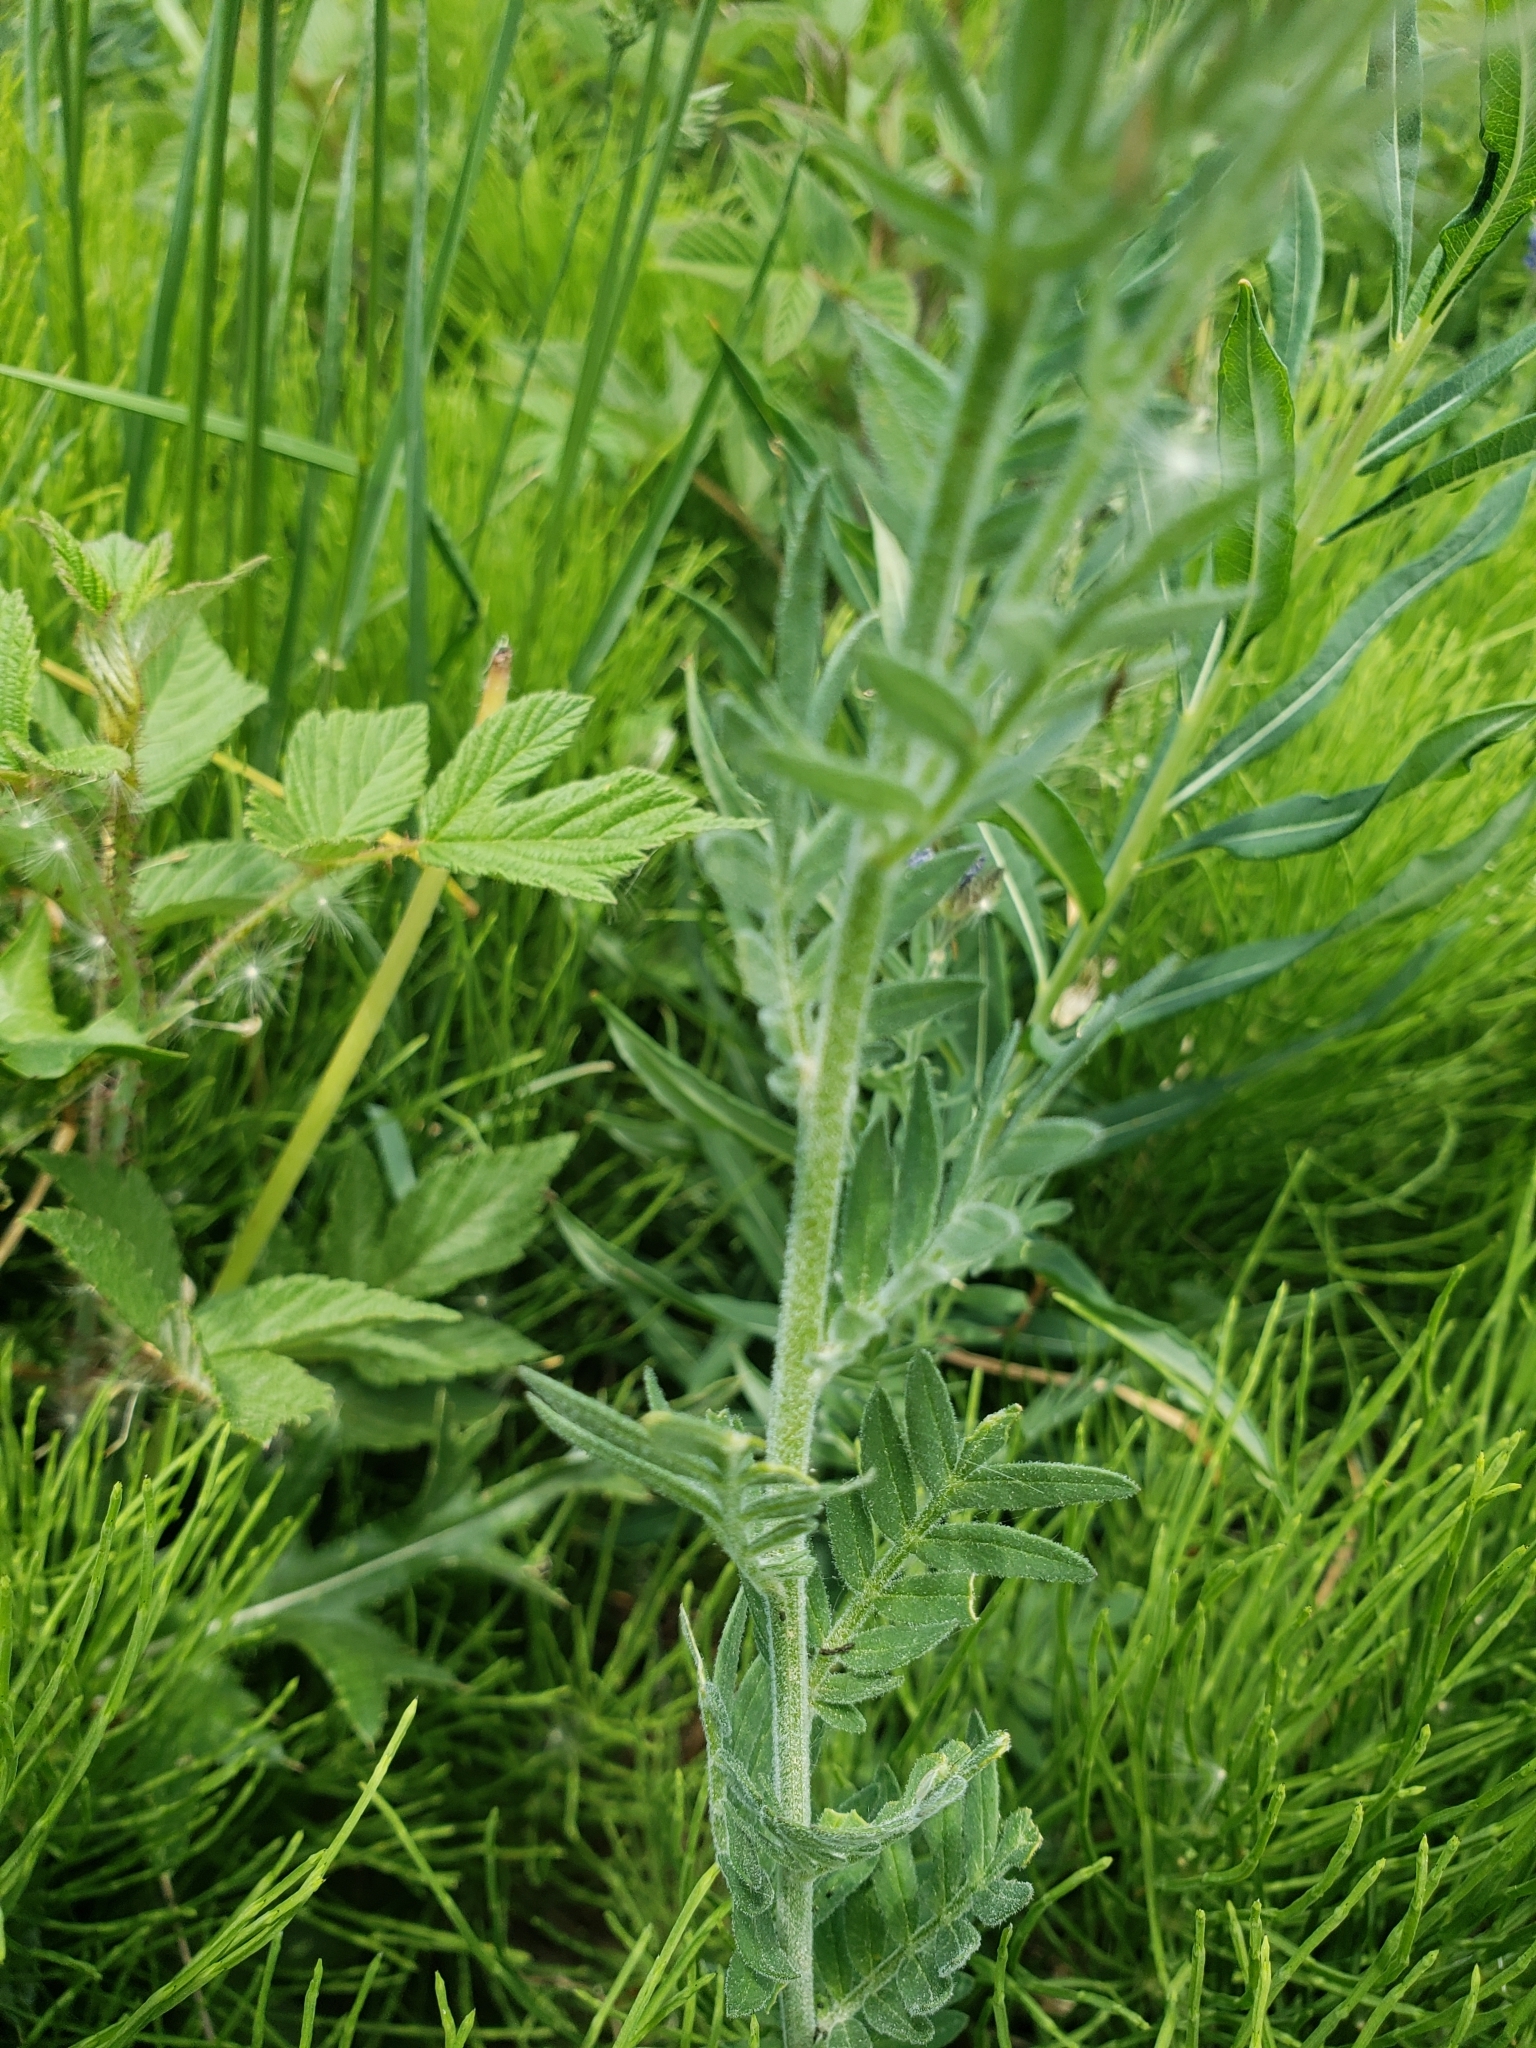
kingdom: Plantae
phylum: Tracheophyta
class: Magnoliopsida
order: Ericales
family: Polemoniaceae
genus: Polemonium
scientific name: Polemonium foliosissimum
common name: Leafy jacob's-ladder
